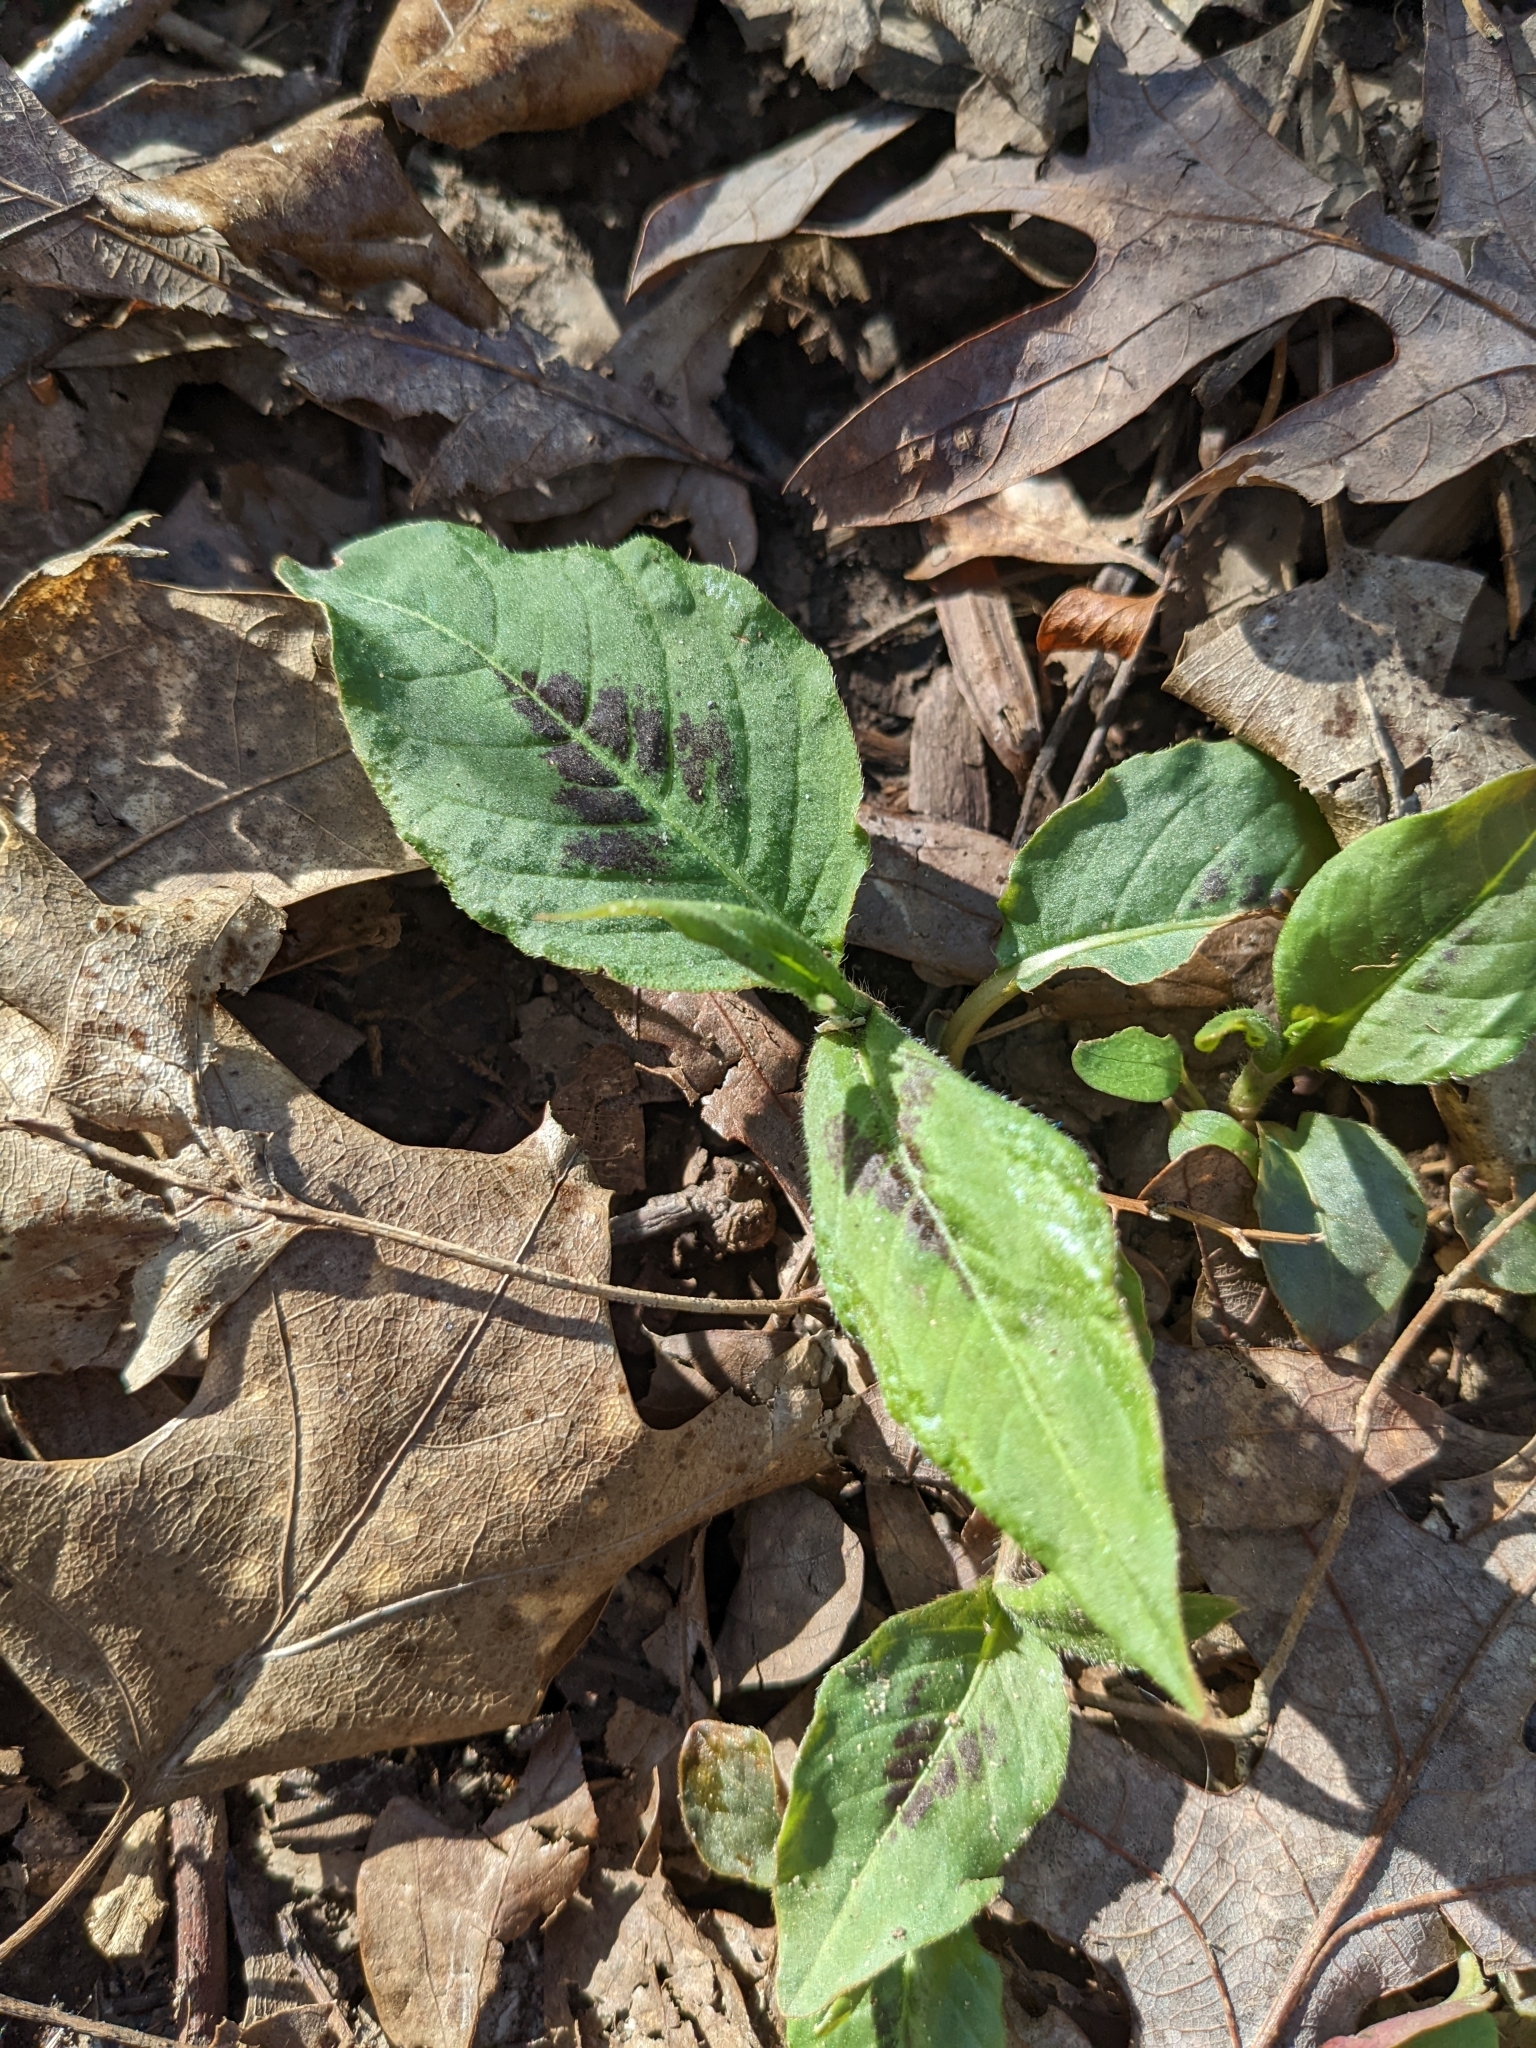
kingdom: Plantae
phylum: Tracheophyta
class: Magnoliopsida
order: Caryophyllales
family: Polygonaceae
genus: Persicaria
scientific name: Persicaria virginiana
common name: Jumpseed
